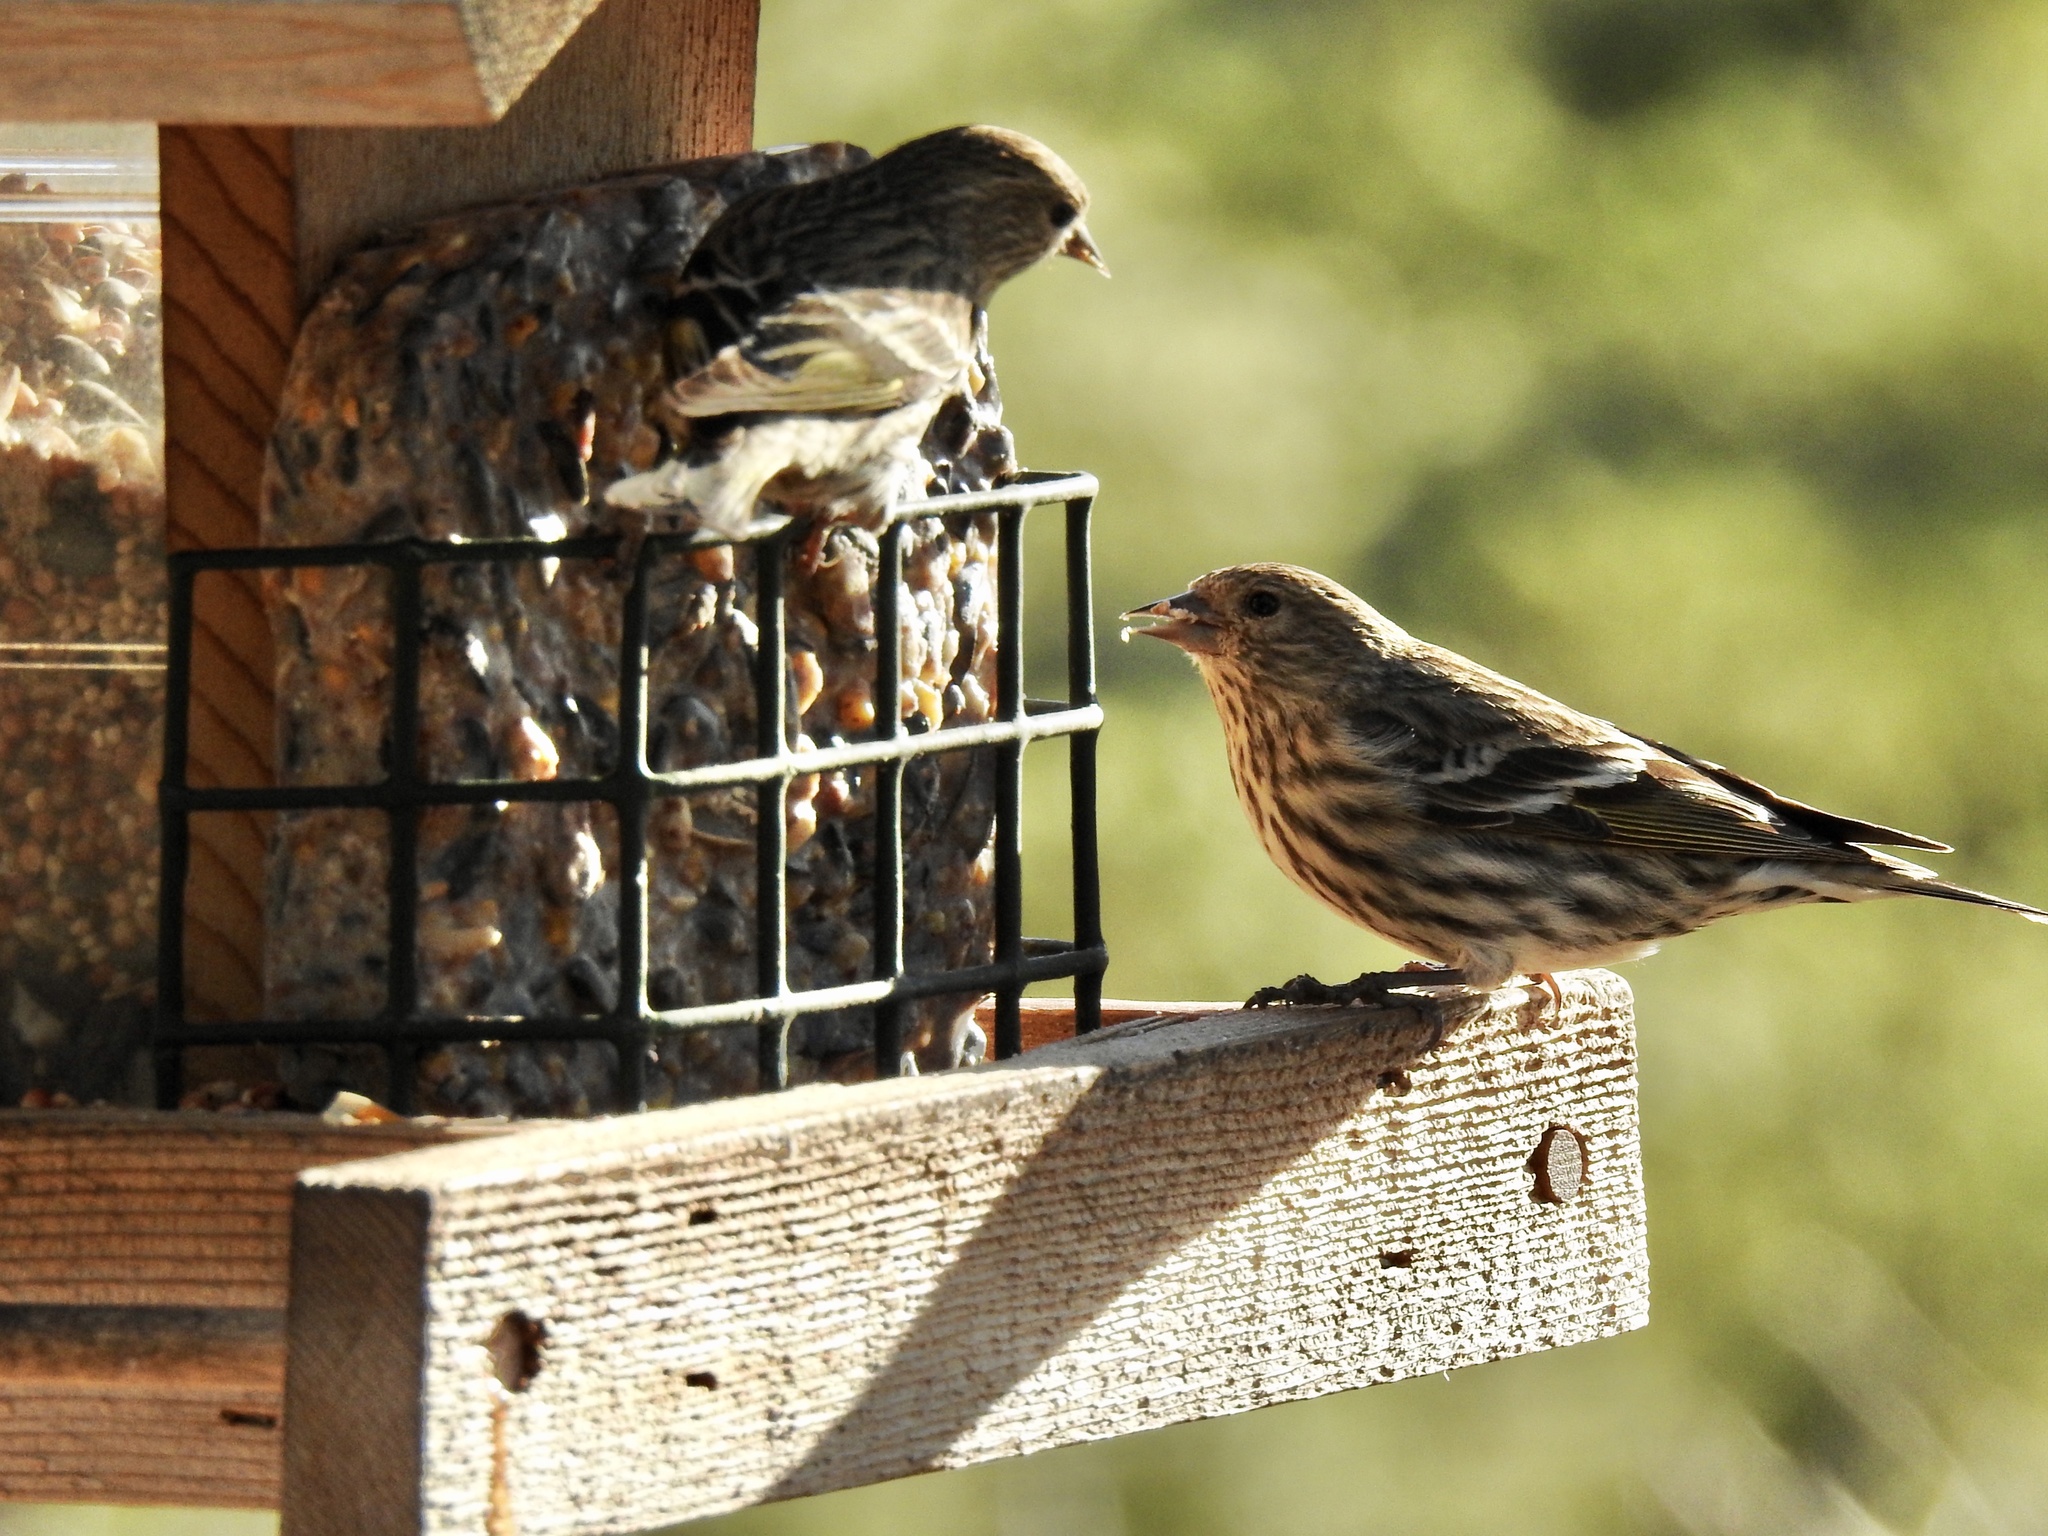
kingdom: Animalia
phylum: Chordata
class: Aves
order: Passeriformes
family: Fringillidae
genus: Spinus
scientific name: Spinus pinus
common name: Pine siskin
